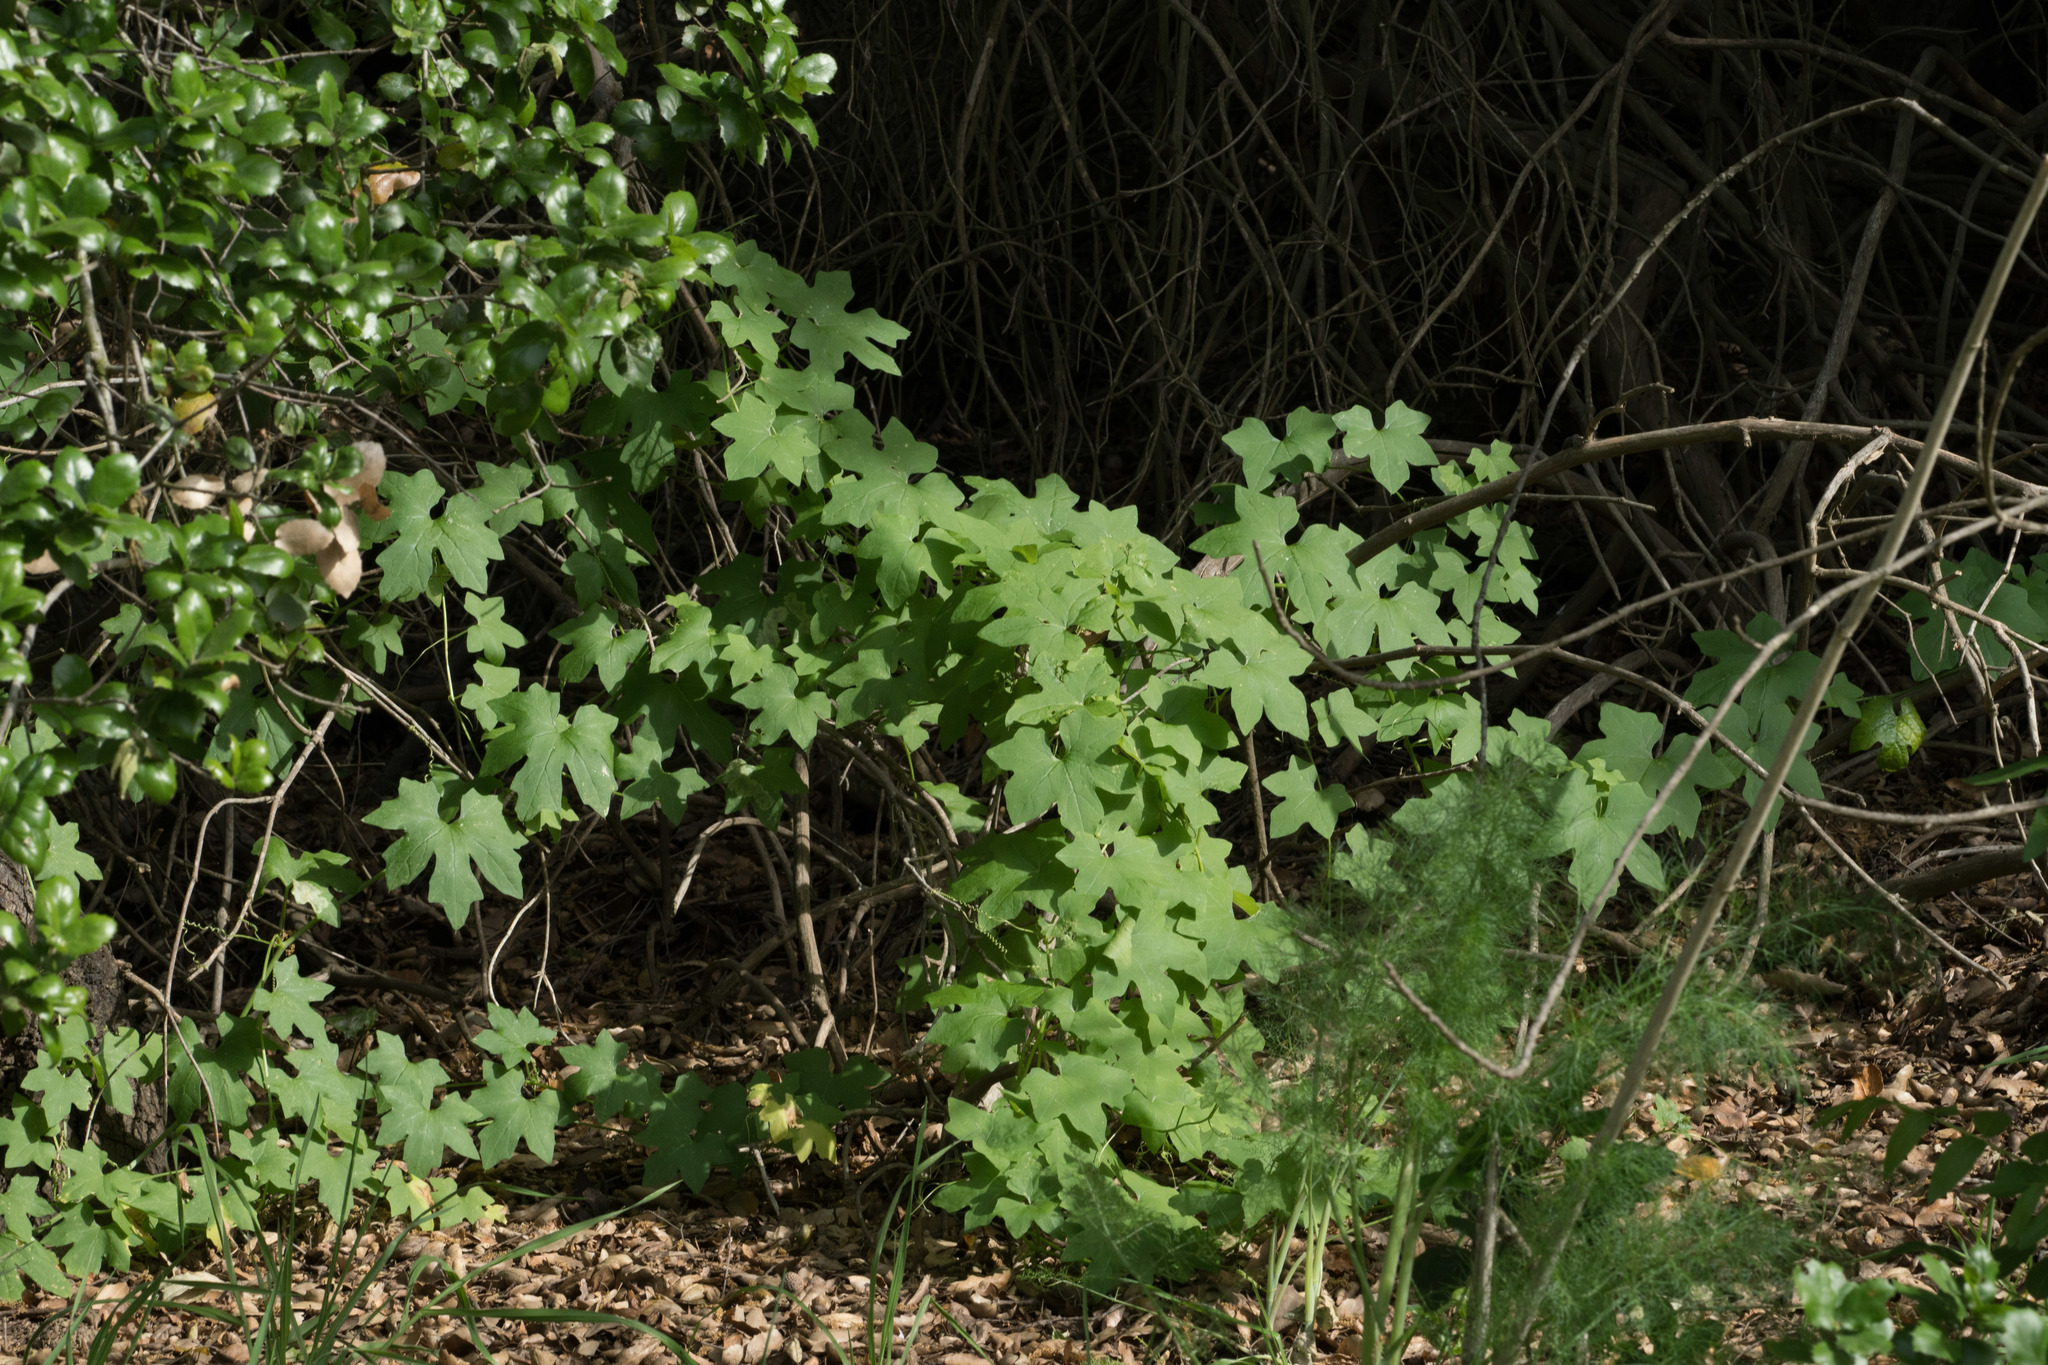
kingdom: Plantae
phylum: Tracheophyta
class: Magnoliopsida
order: Cucurbitales
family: Cucurbitaceae
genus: Marah
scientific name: Marah macrocarpa
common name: Cucamonga manroot
